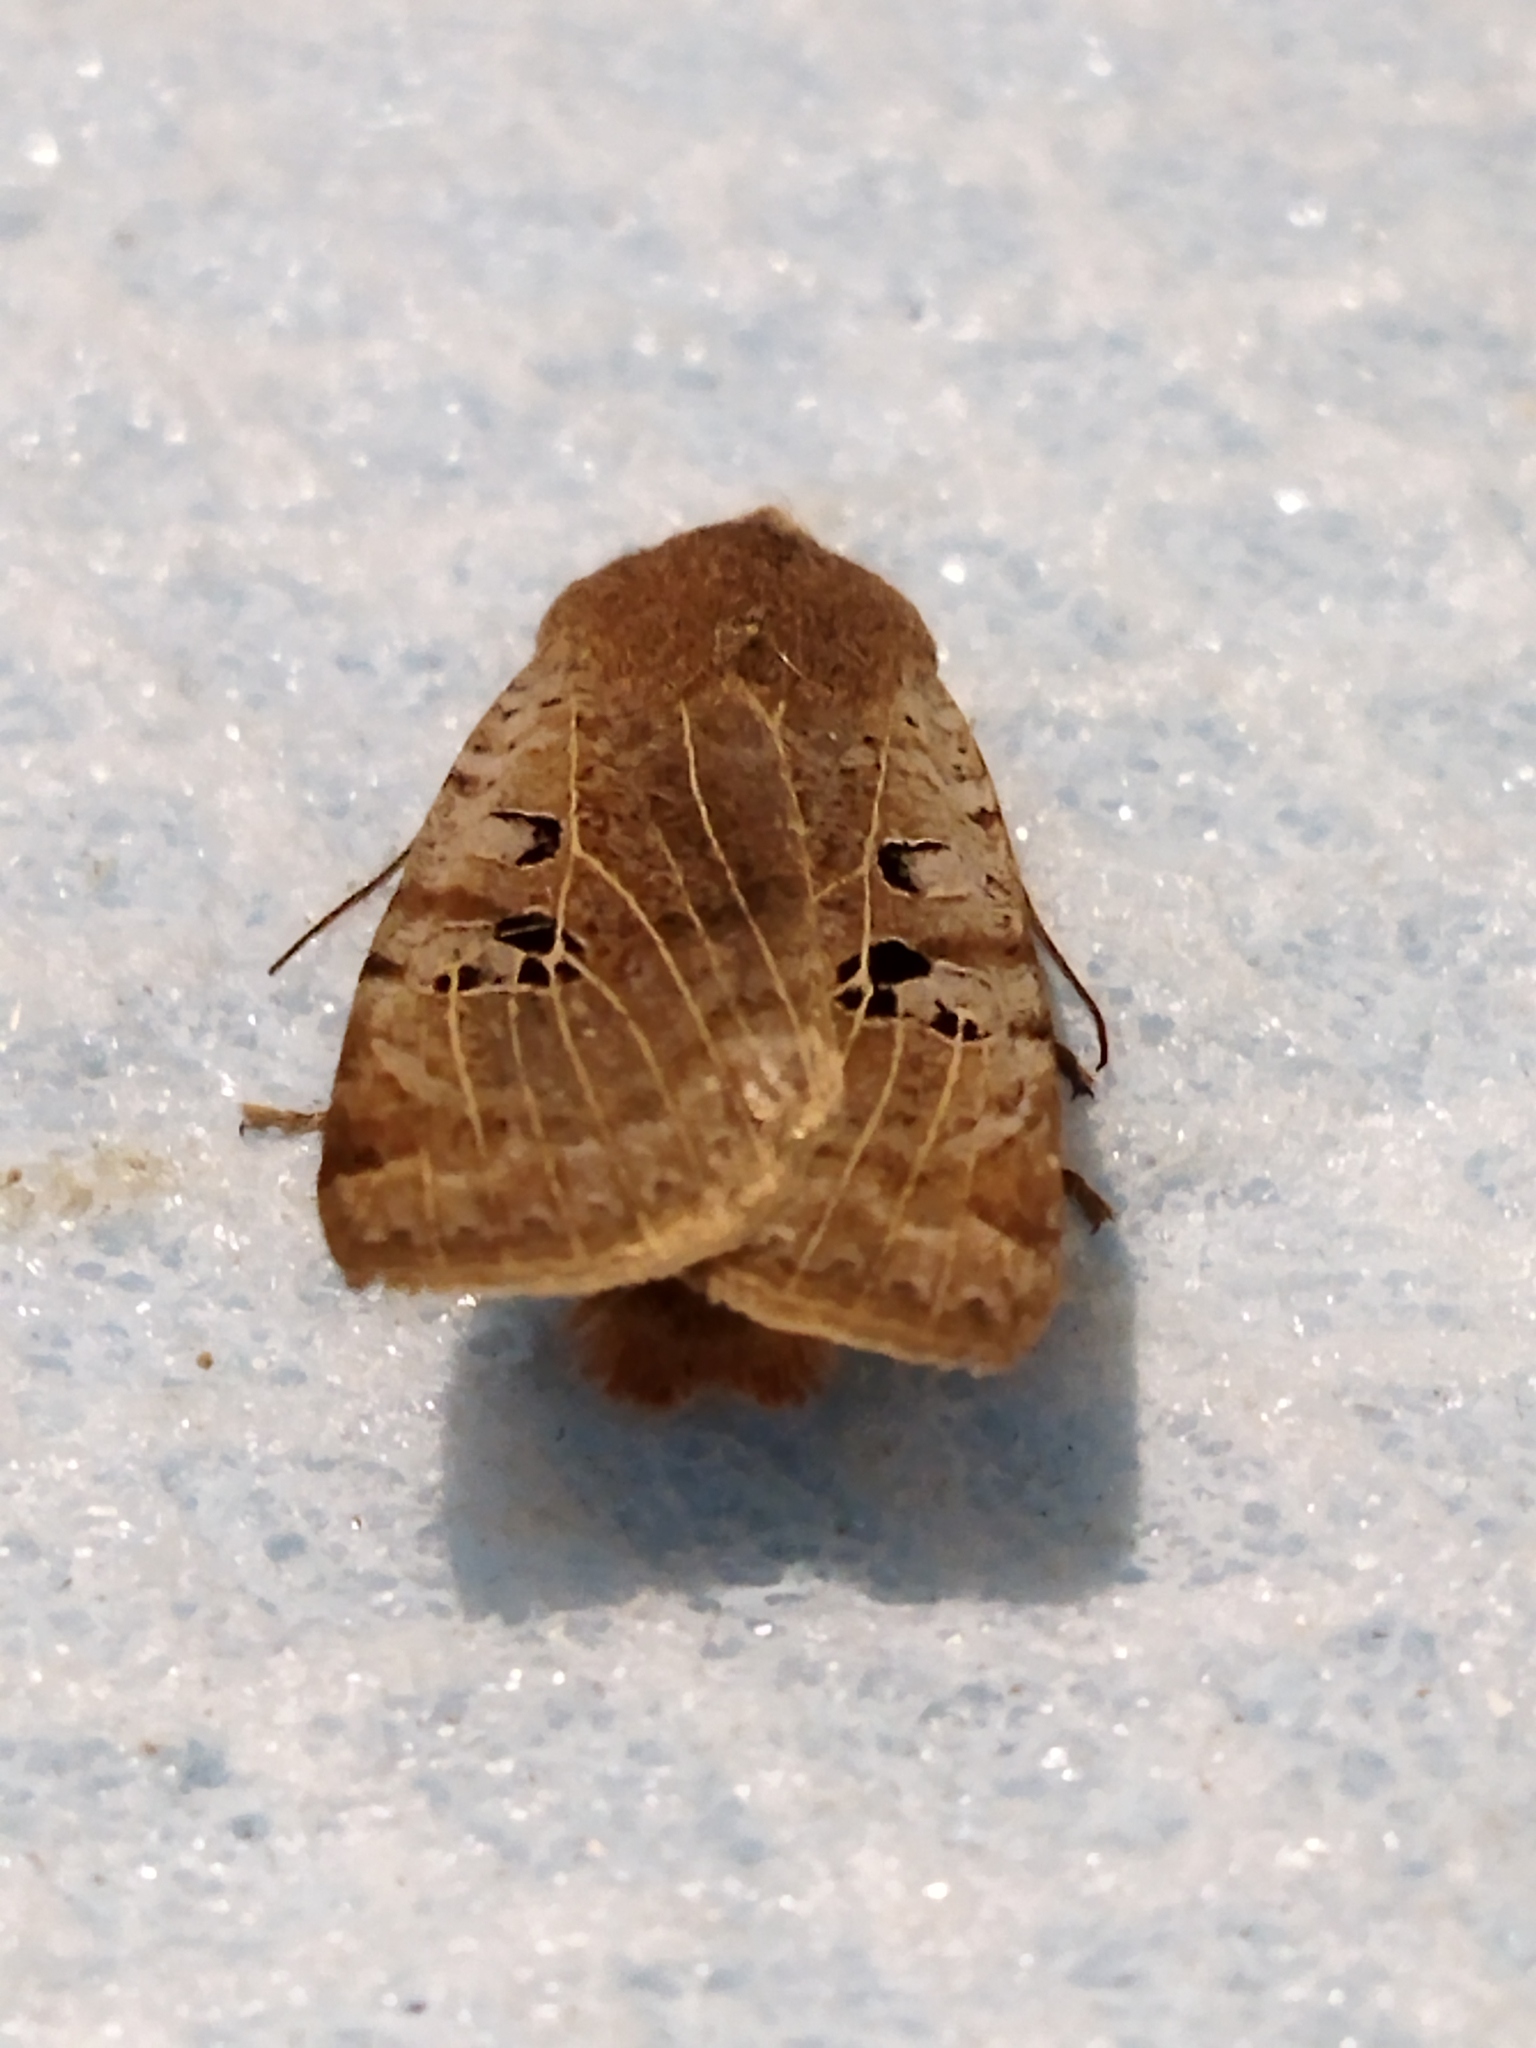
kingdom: Animalia
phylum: Arthropoda
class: Insecta
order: Lepidoptera
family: Noctuidae
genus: Conistra
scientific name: Conistra rubiginosa
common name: Black-spotted chestnut
